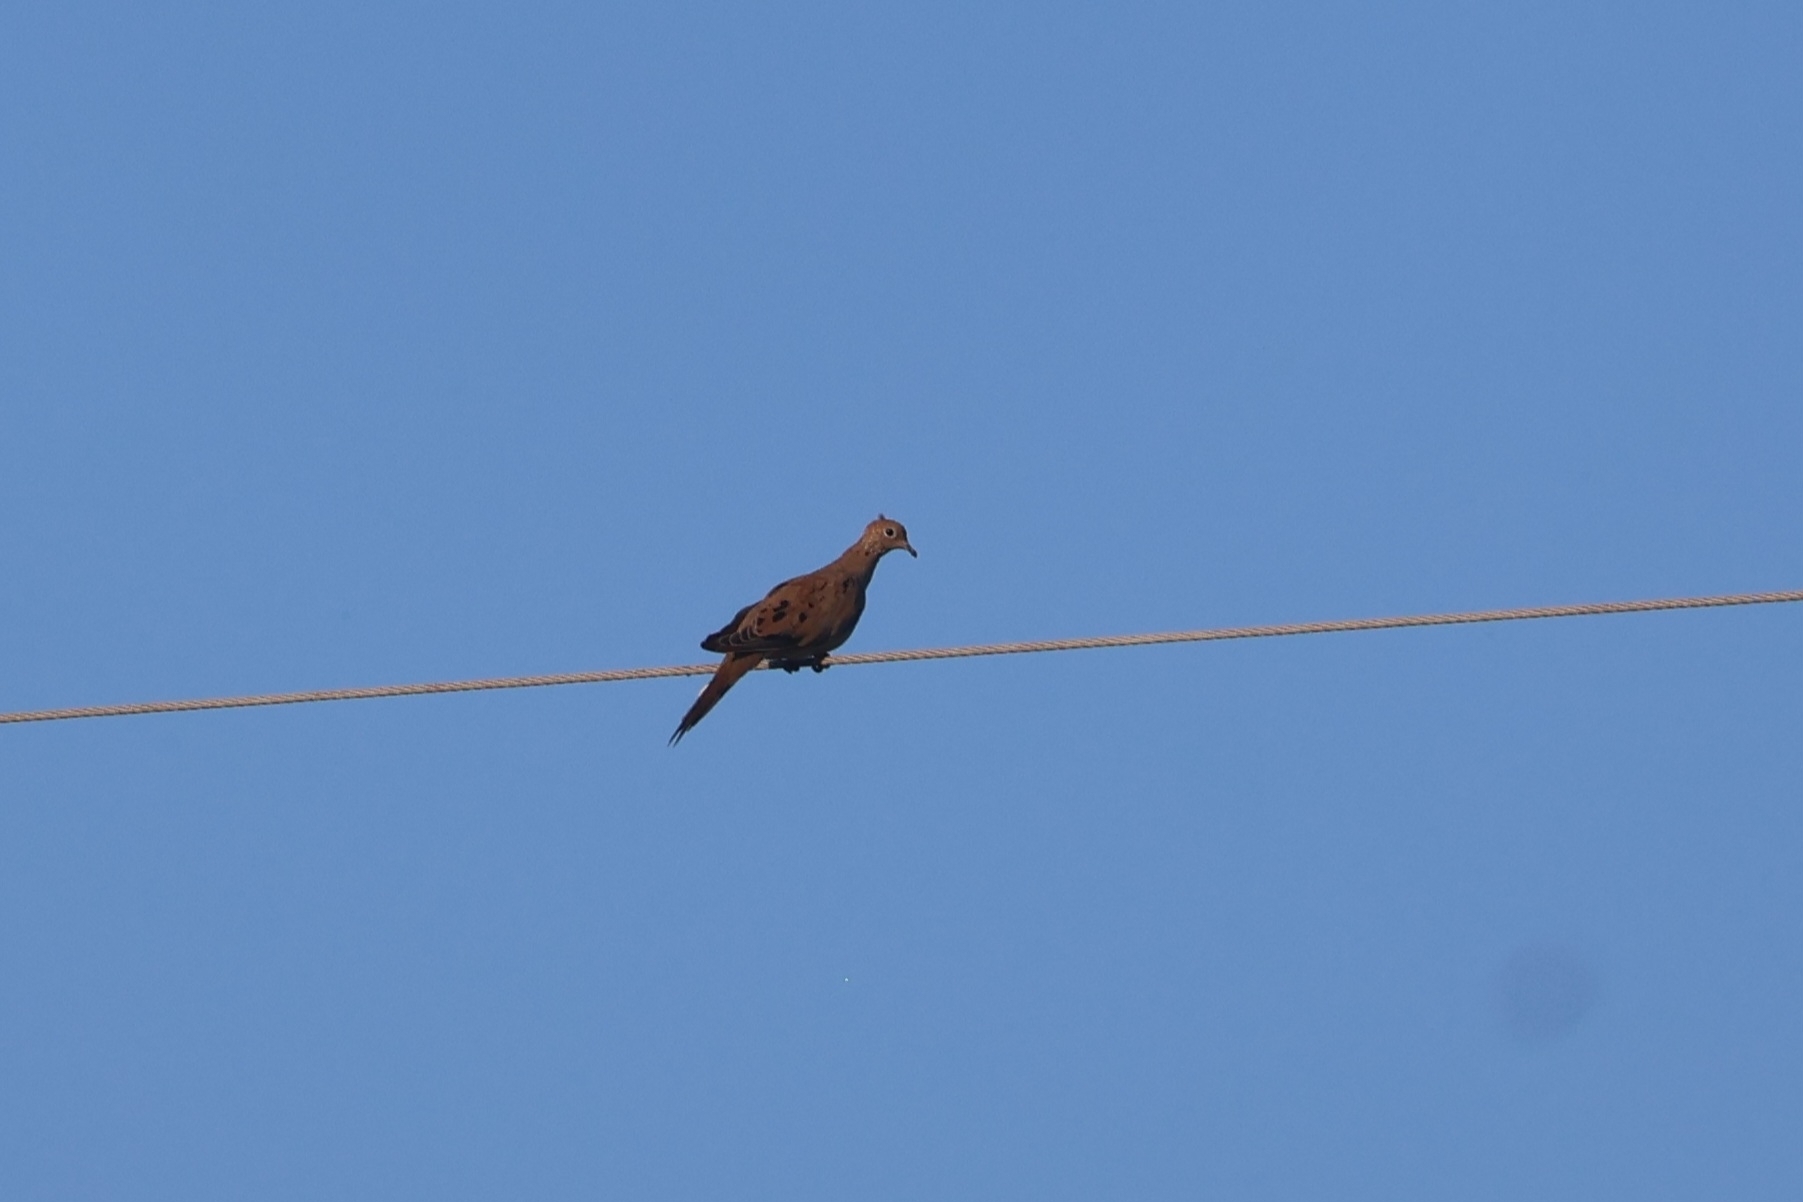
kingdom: Animalia
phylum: Chordata
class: Aves
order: Columbiformes
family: Columbidae
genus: Zenaida
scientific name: Zenaida macroura
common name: Mourning dove
